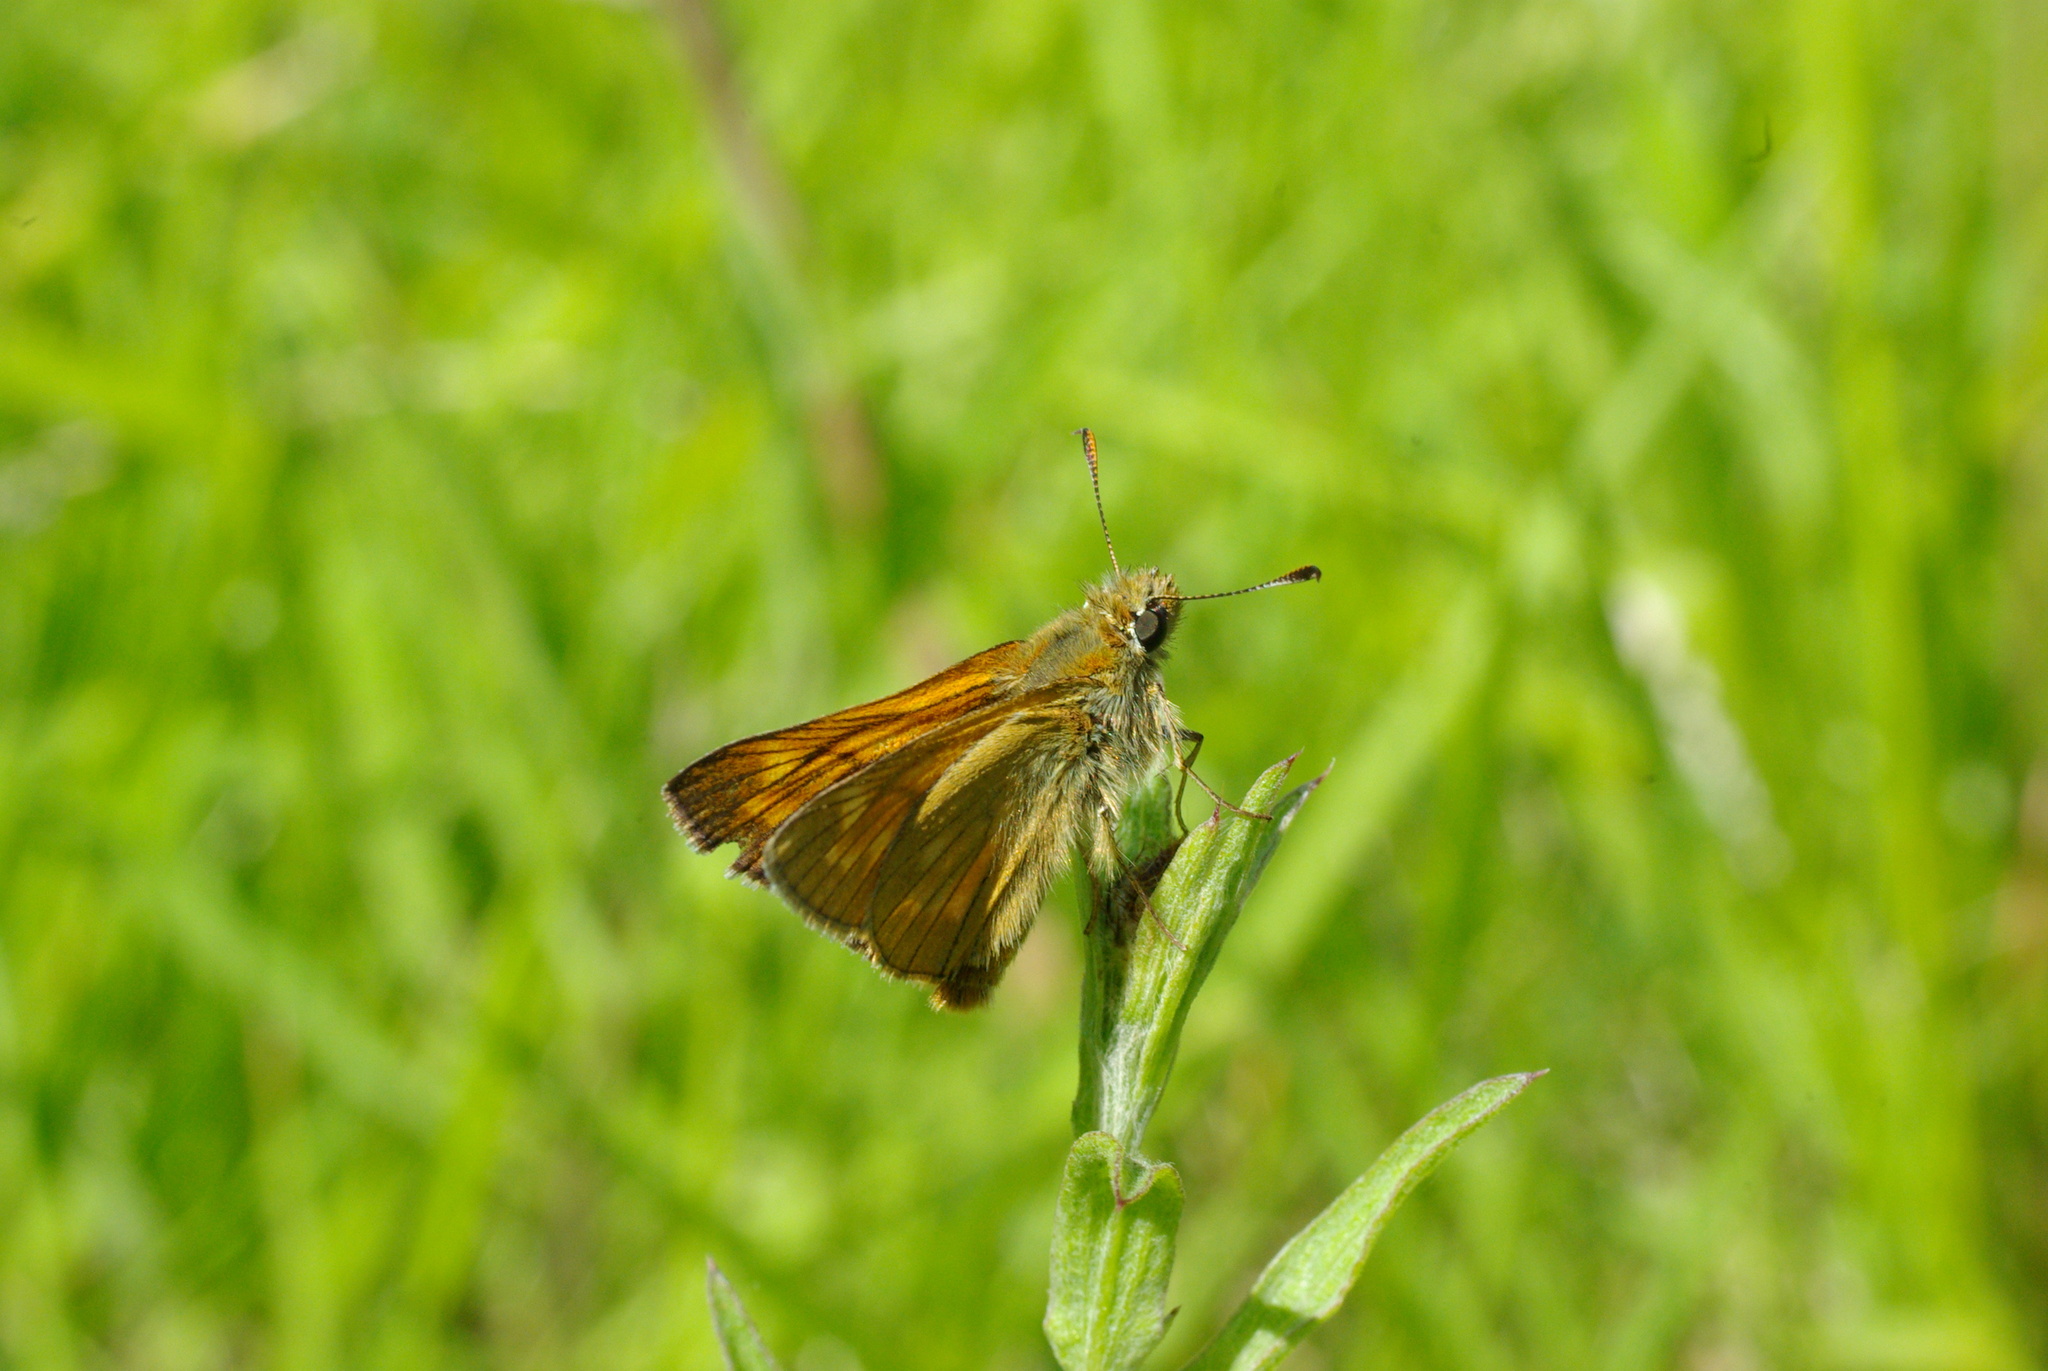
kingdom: Animalia
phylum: Arthropoda
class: Insecta
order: Lepidoptera
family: Hesperiidae
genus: Ochlodes
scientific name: Ochlodes venata
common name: Large skipper
